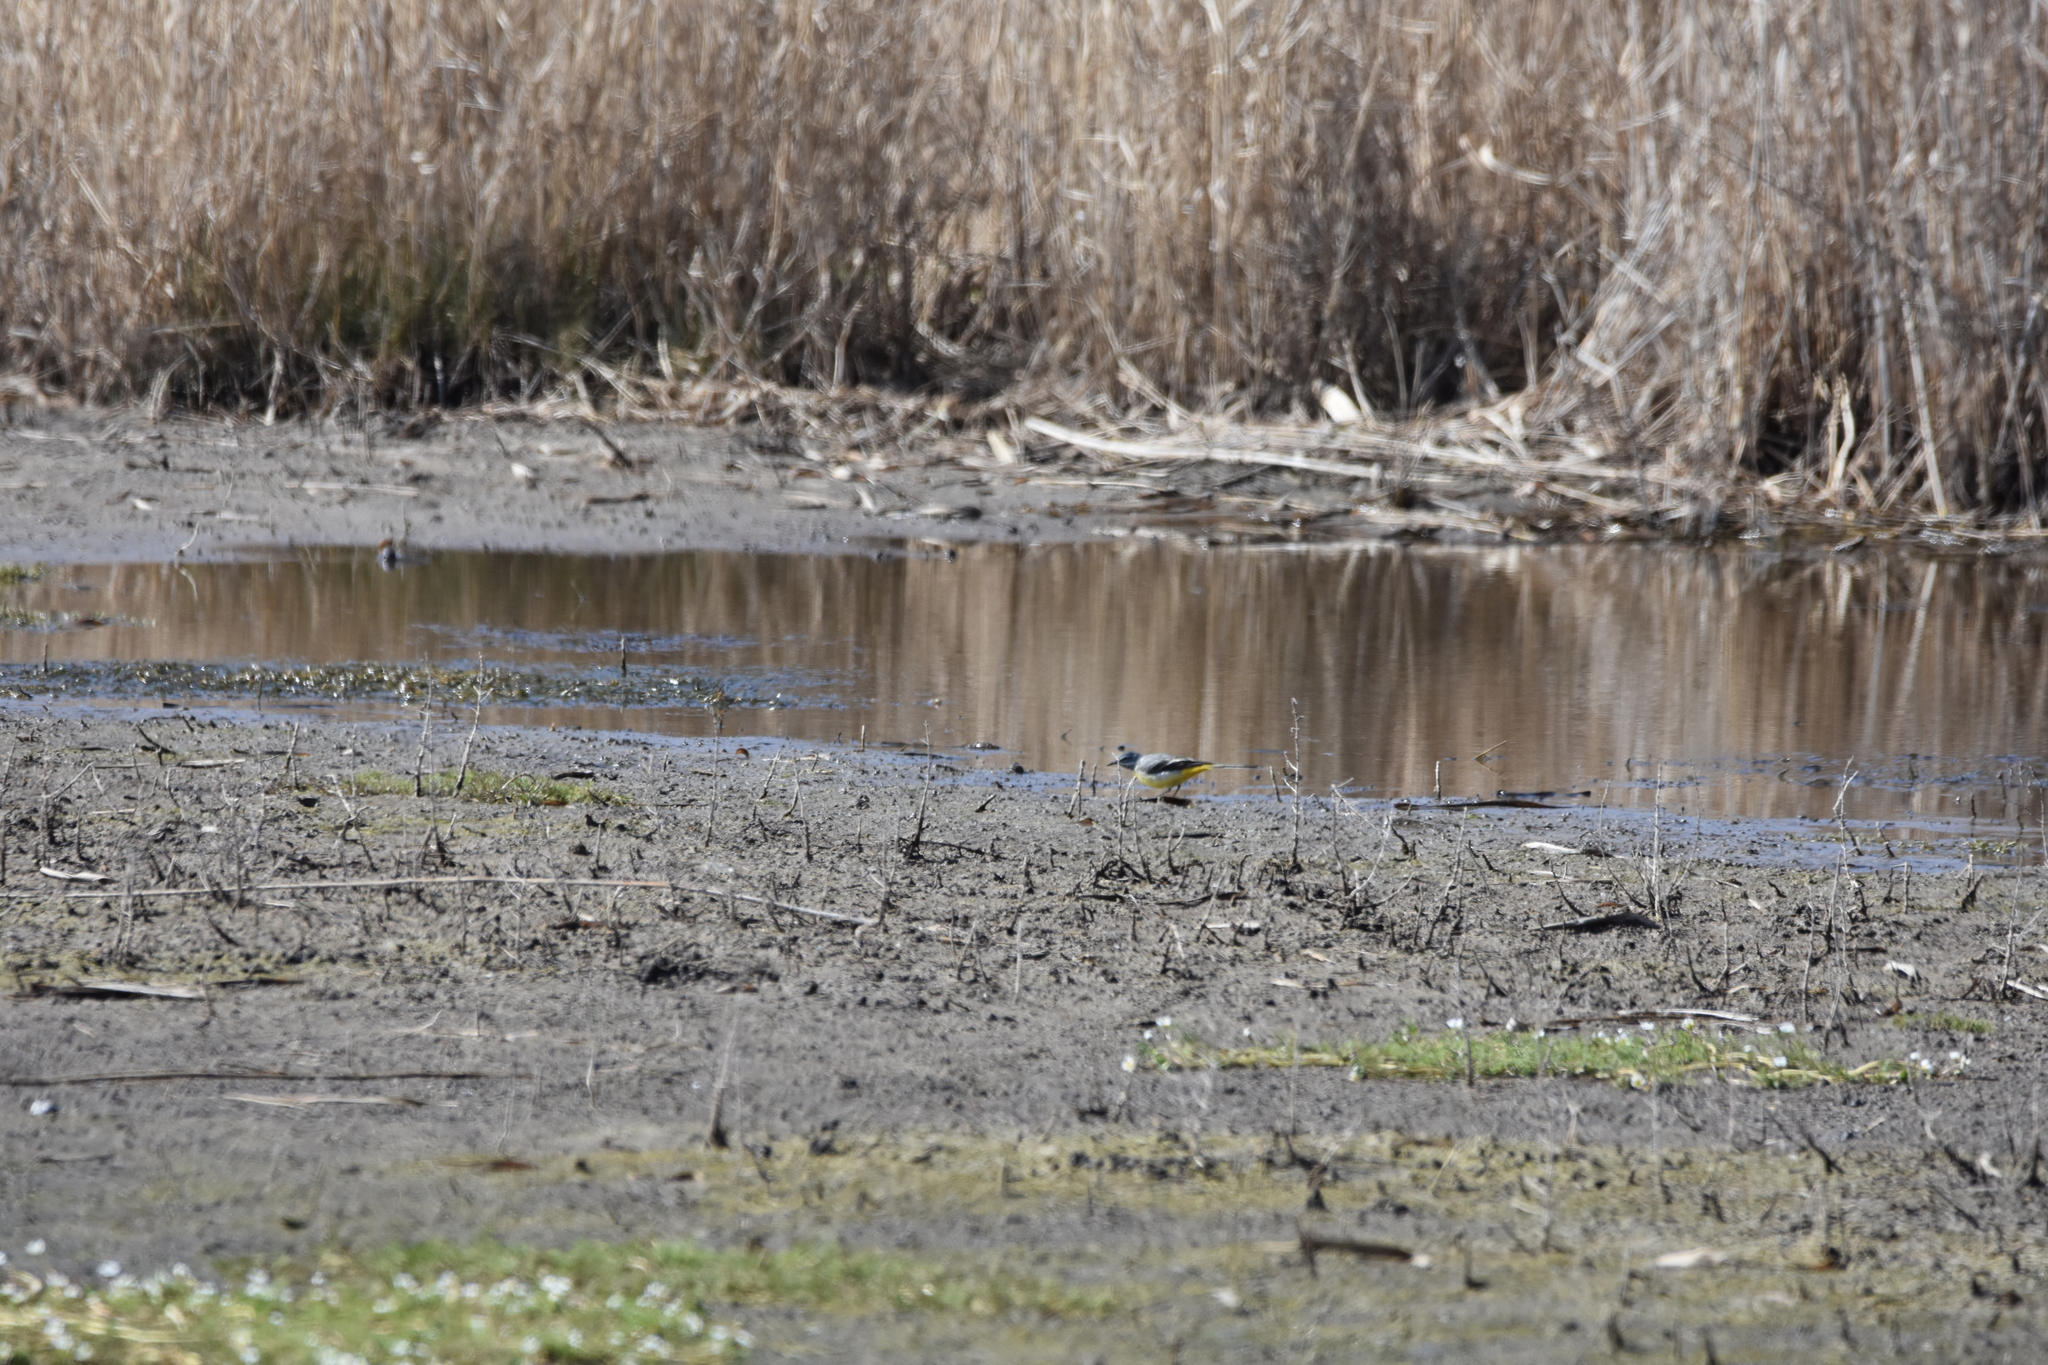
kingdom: Animalia
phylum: Chordata
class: Aves
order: Passeriformes
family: Motacillidae
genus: Motacilla
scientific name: Motacilla cinerea
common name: Grey wagtail
